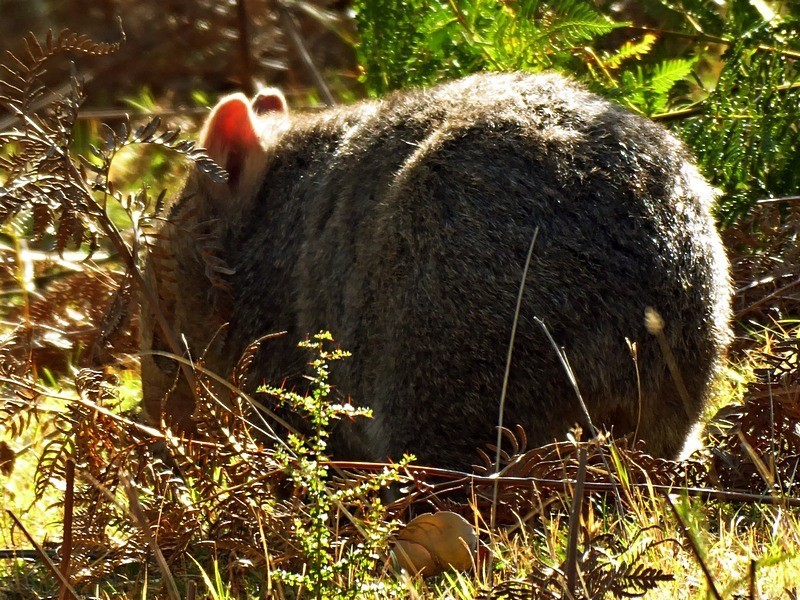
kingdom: Animalia
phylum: Chordata
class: Mammalia
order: Diprotodontia
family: Vombatidae
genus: Vombatus
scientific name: Vombatus ursinus
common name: Common wombat
